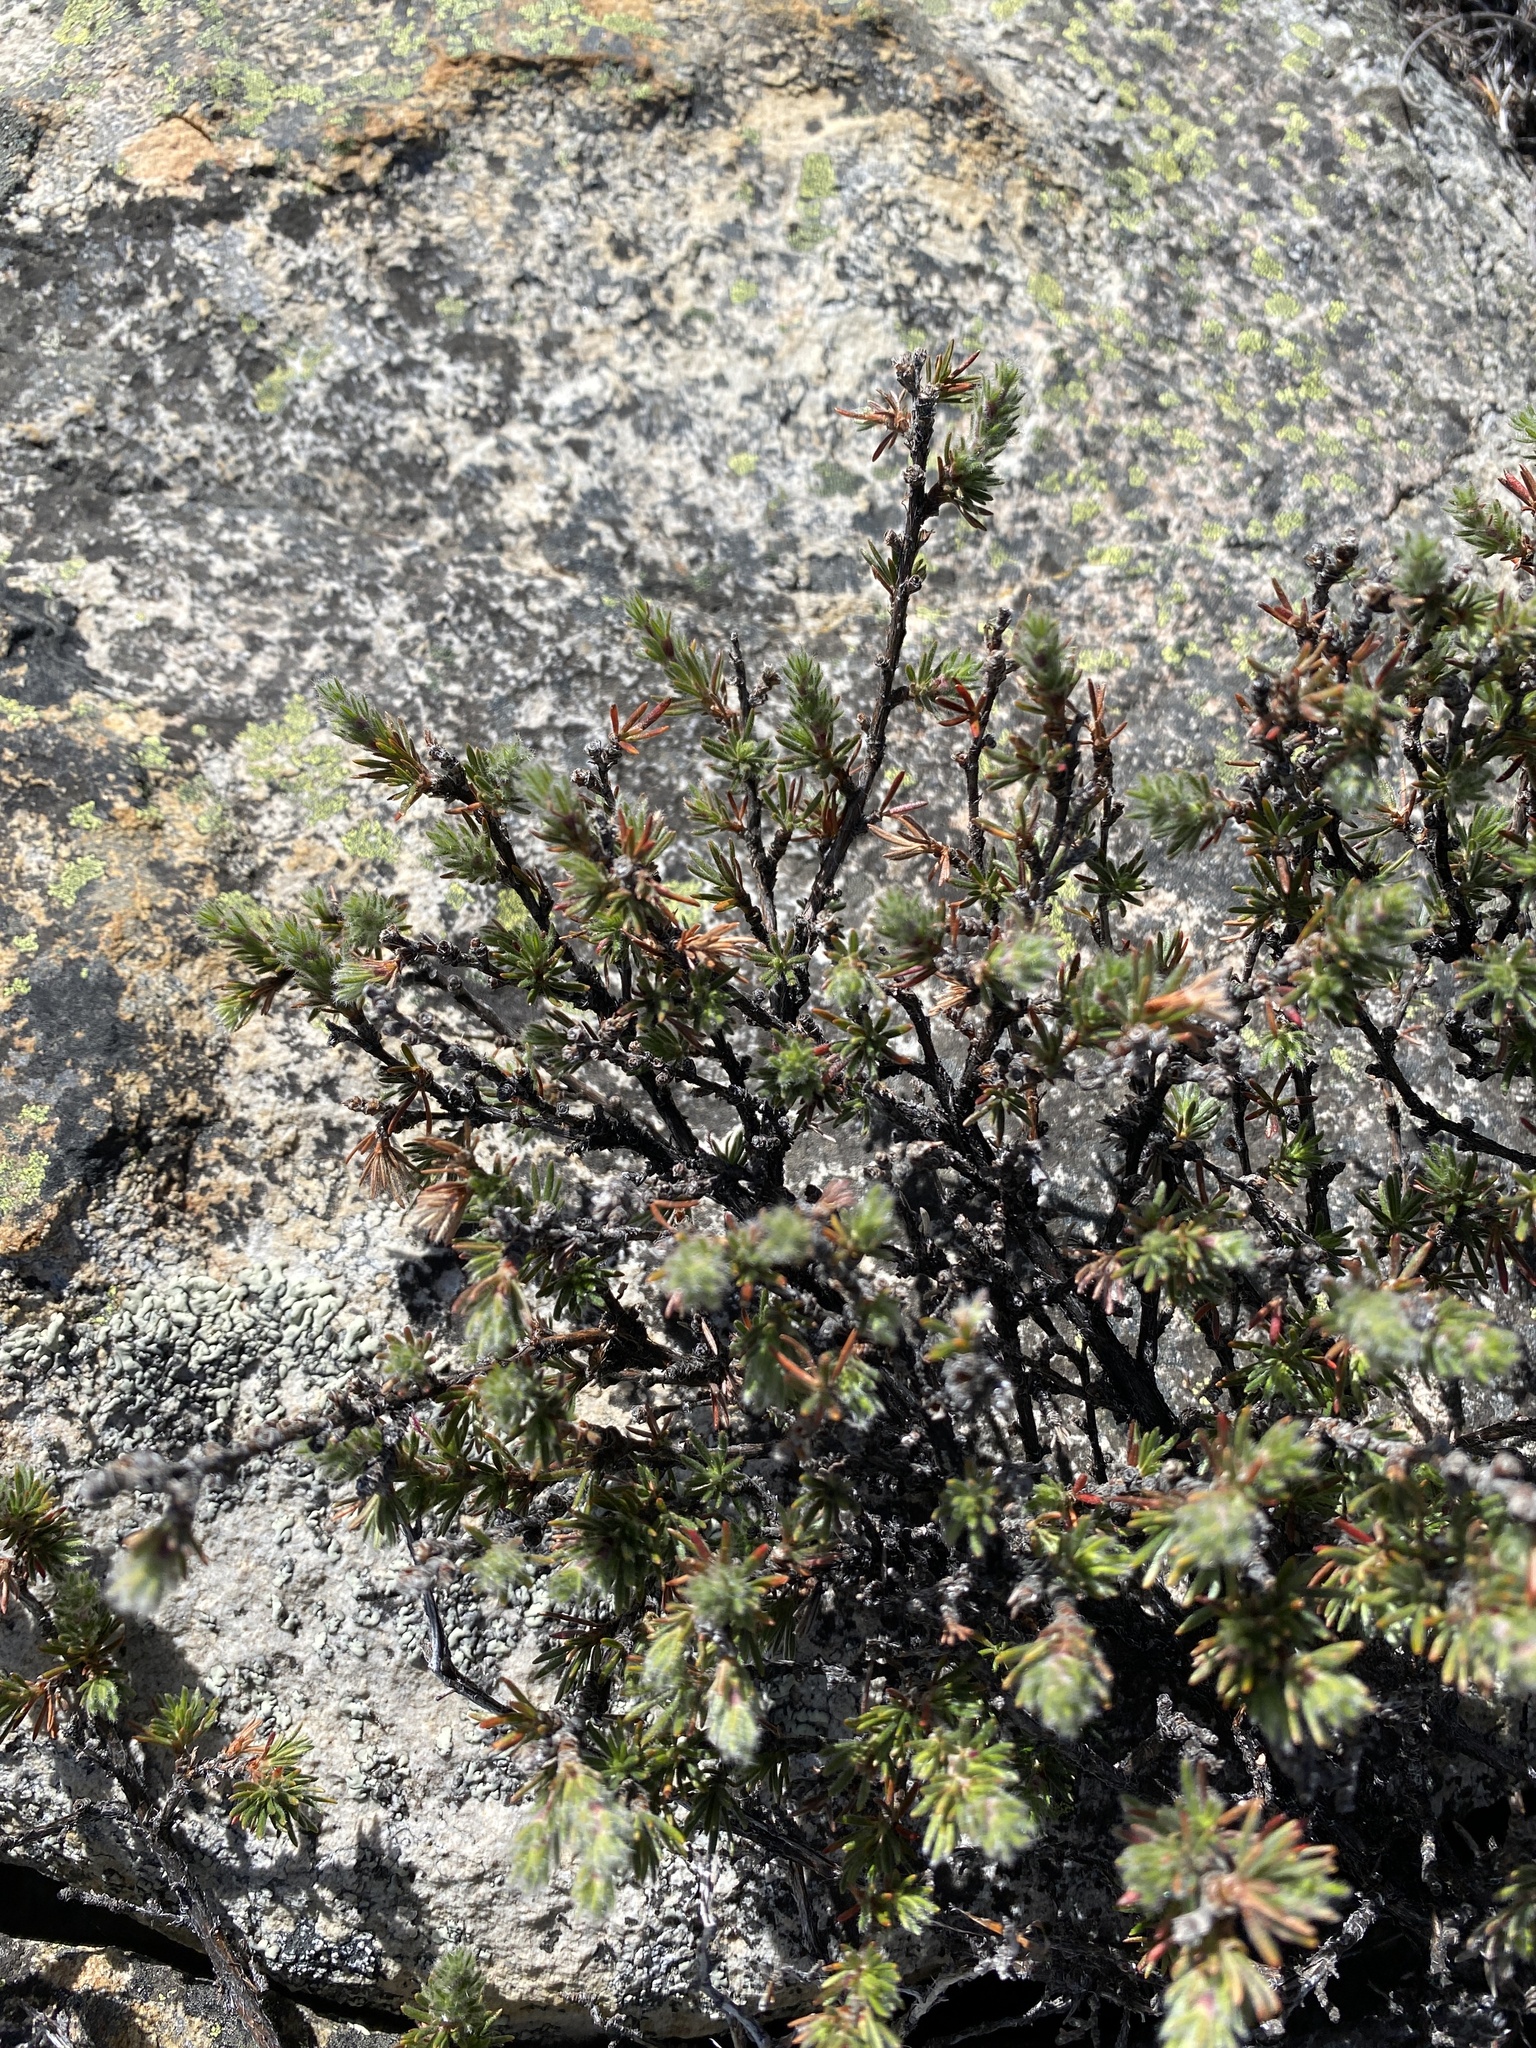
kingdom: Plantae
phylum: Tracheophyta
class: Magnoliopsida
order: Rosales
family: Rosaceae
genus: Cliffortia
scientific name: Cliffortia weimarckii
